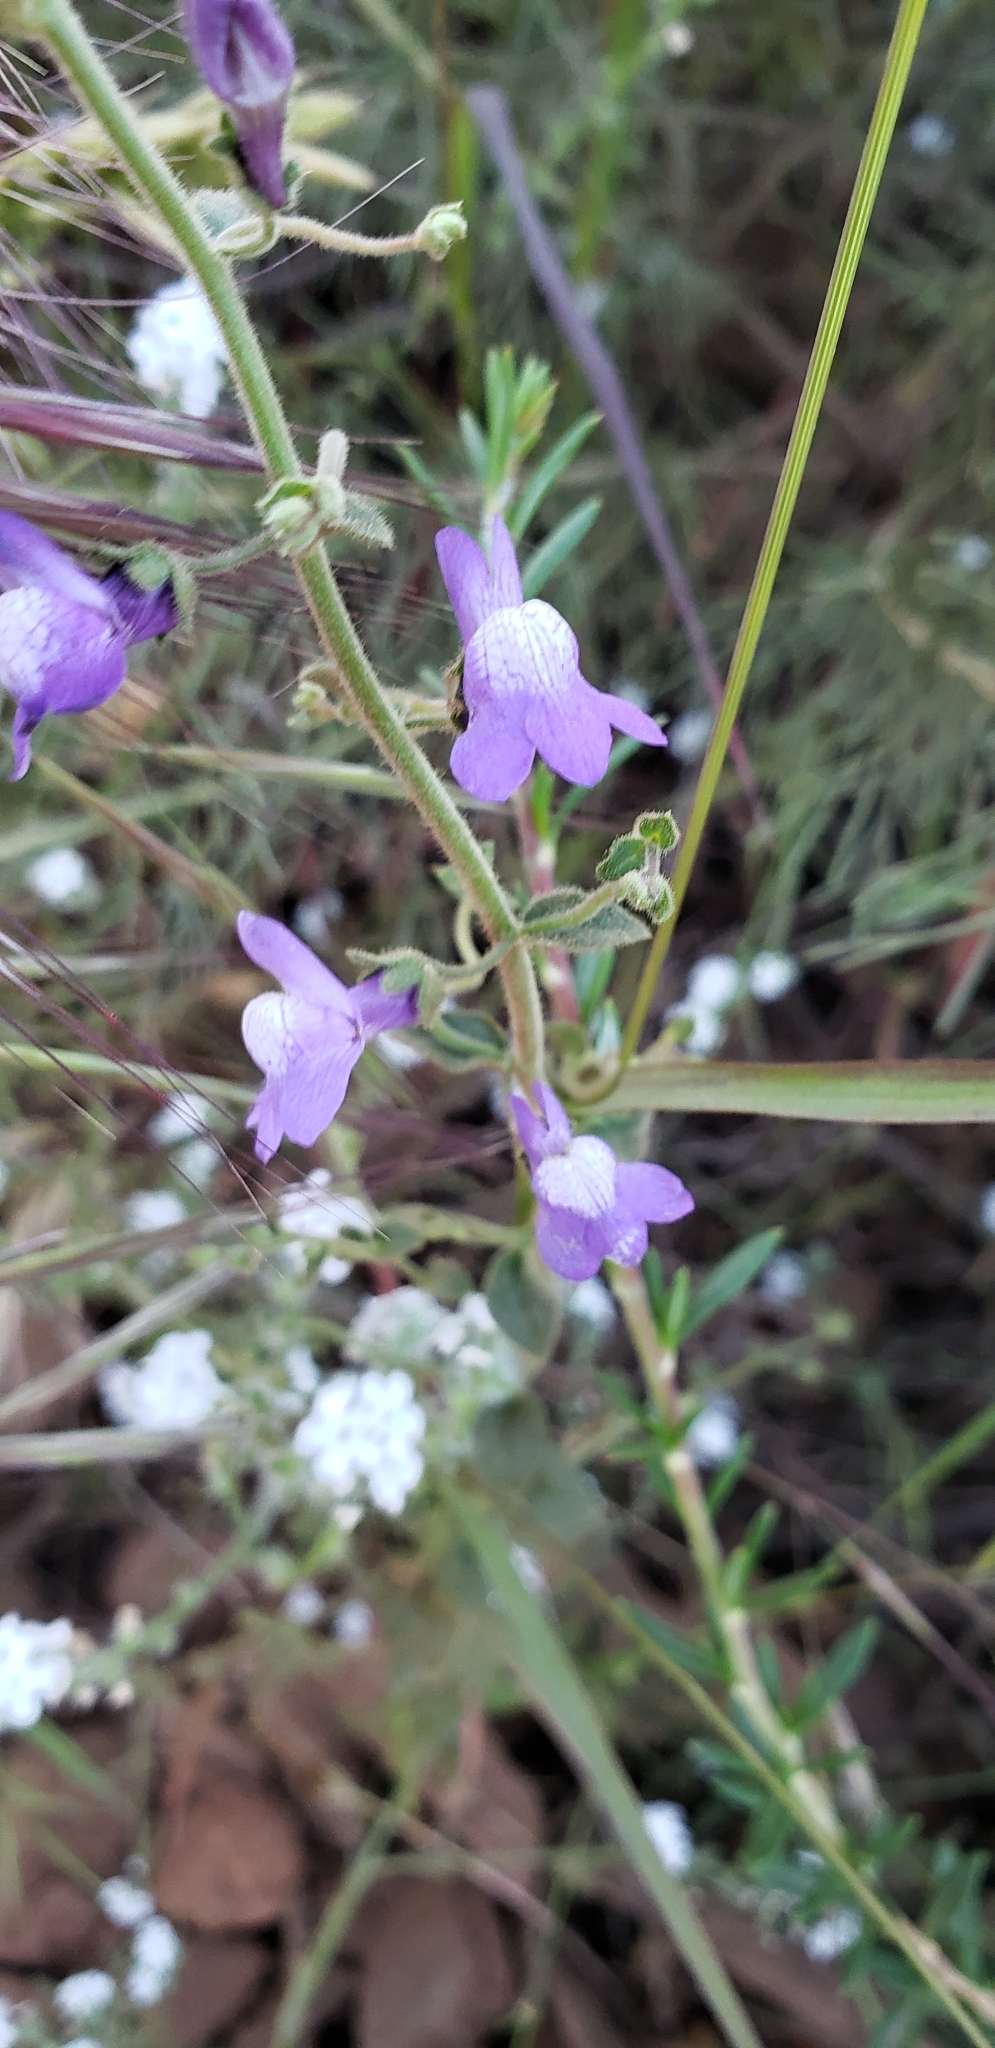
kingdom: Plantae
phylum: Tracheophyta
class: Magnoliopsida
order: Lamiales
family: Plantaginaceae
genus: Sairocarpus
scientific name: Sairocarpus nuttallianus
